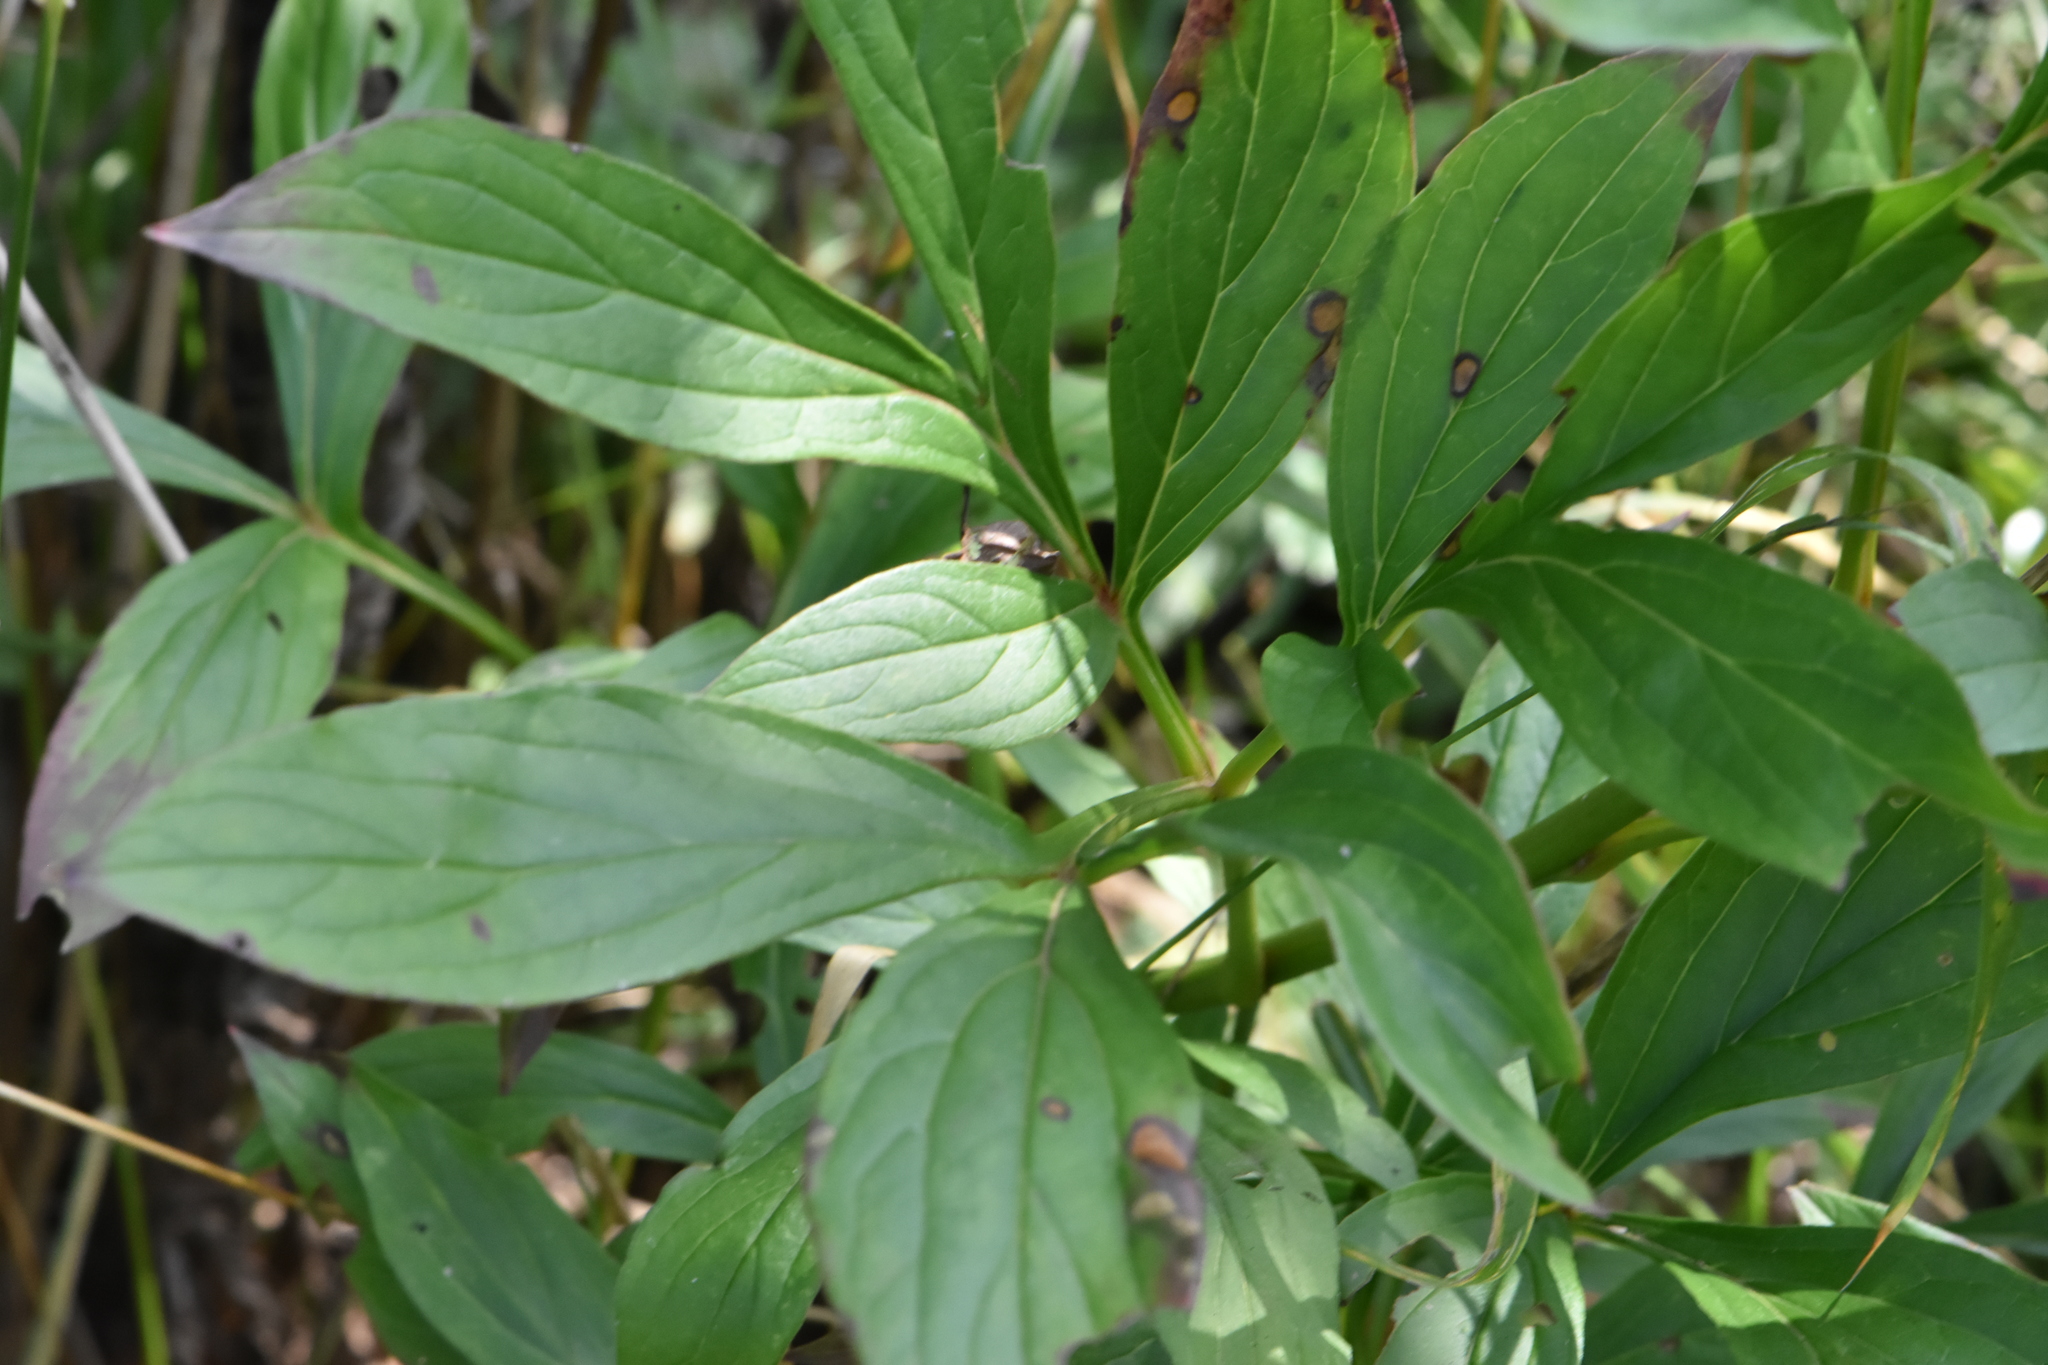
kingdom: Plantae
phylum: Tracheophyta
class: Magnoliopsida
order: Saxifragales
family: Paeoniaceae
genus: Paeonia
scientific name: Paeonia lactiflora
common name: Chinese peony
